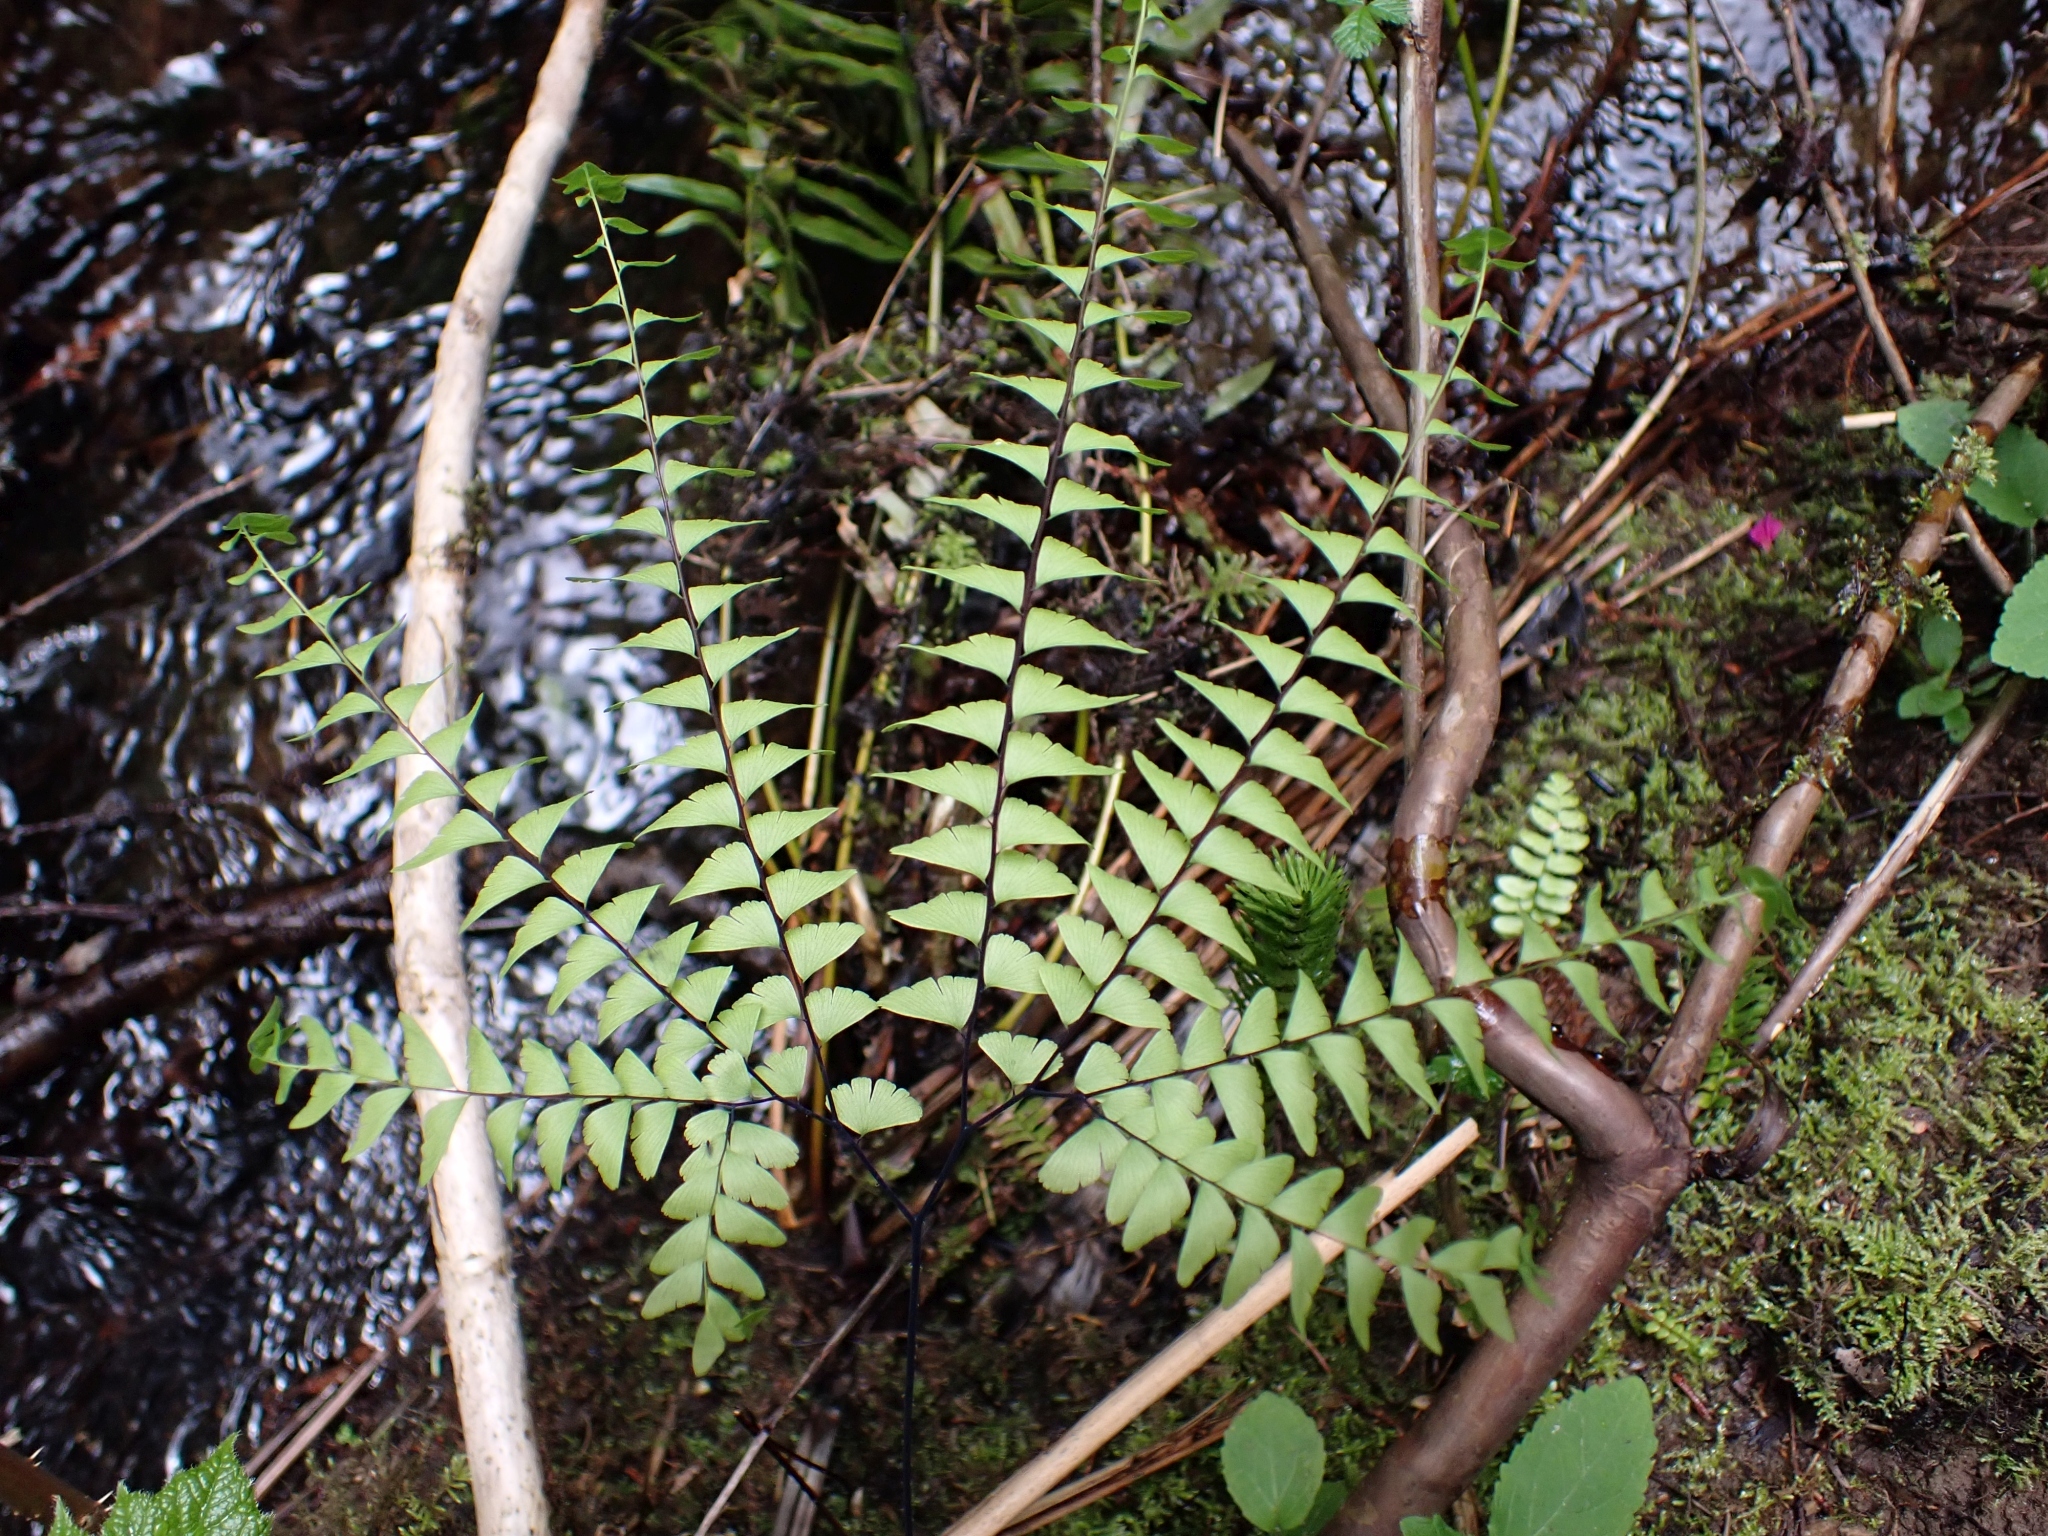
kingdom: Plantae
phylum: Tracheophyta
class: Polypodiopsida
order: Polypodiales
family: Pteridaceae
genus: Adiantum
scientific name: Adiantum aleuticum
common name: Aleutian maidenhair fern
